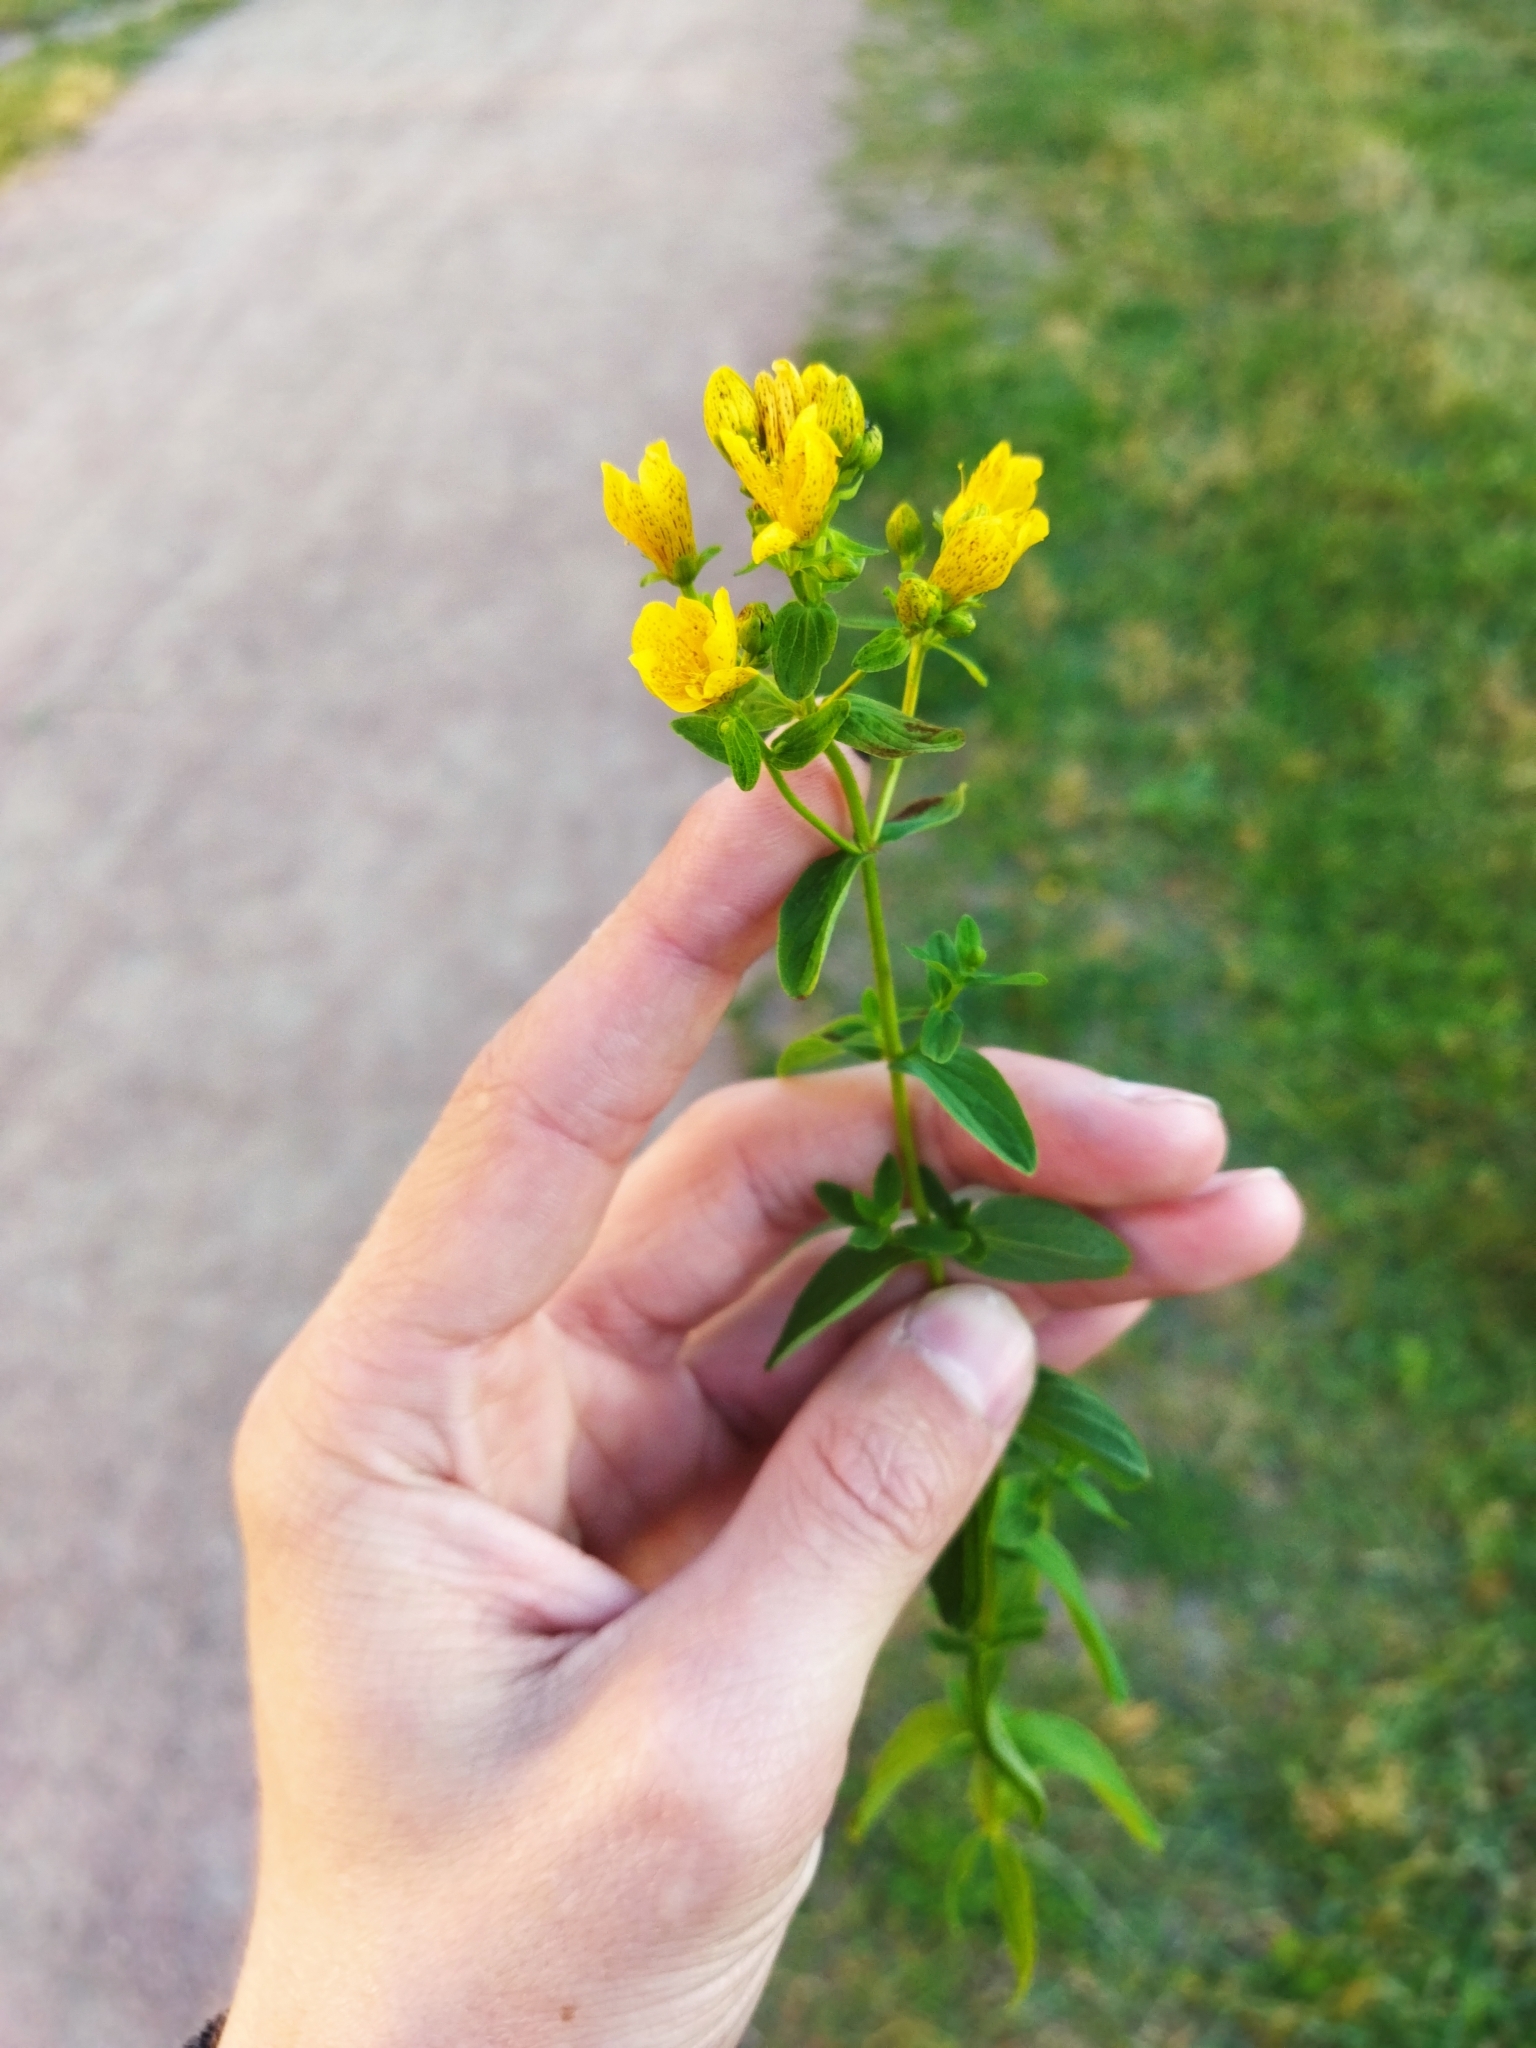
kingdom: Plantae
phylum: Tracheophyta
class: Magnoliopsida
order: Malpighiales
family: Hypericaceae
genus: Hypericum
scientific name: Hypericum maculatum
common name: Imperforate st. john's-wort
